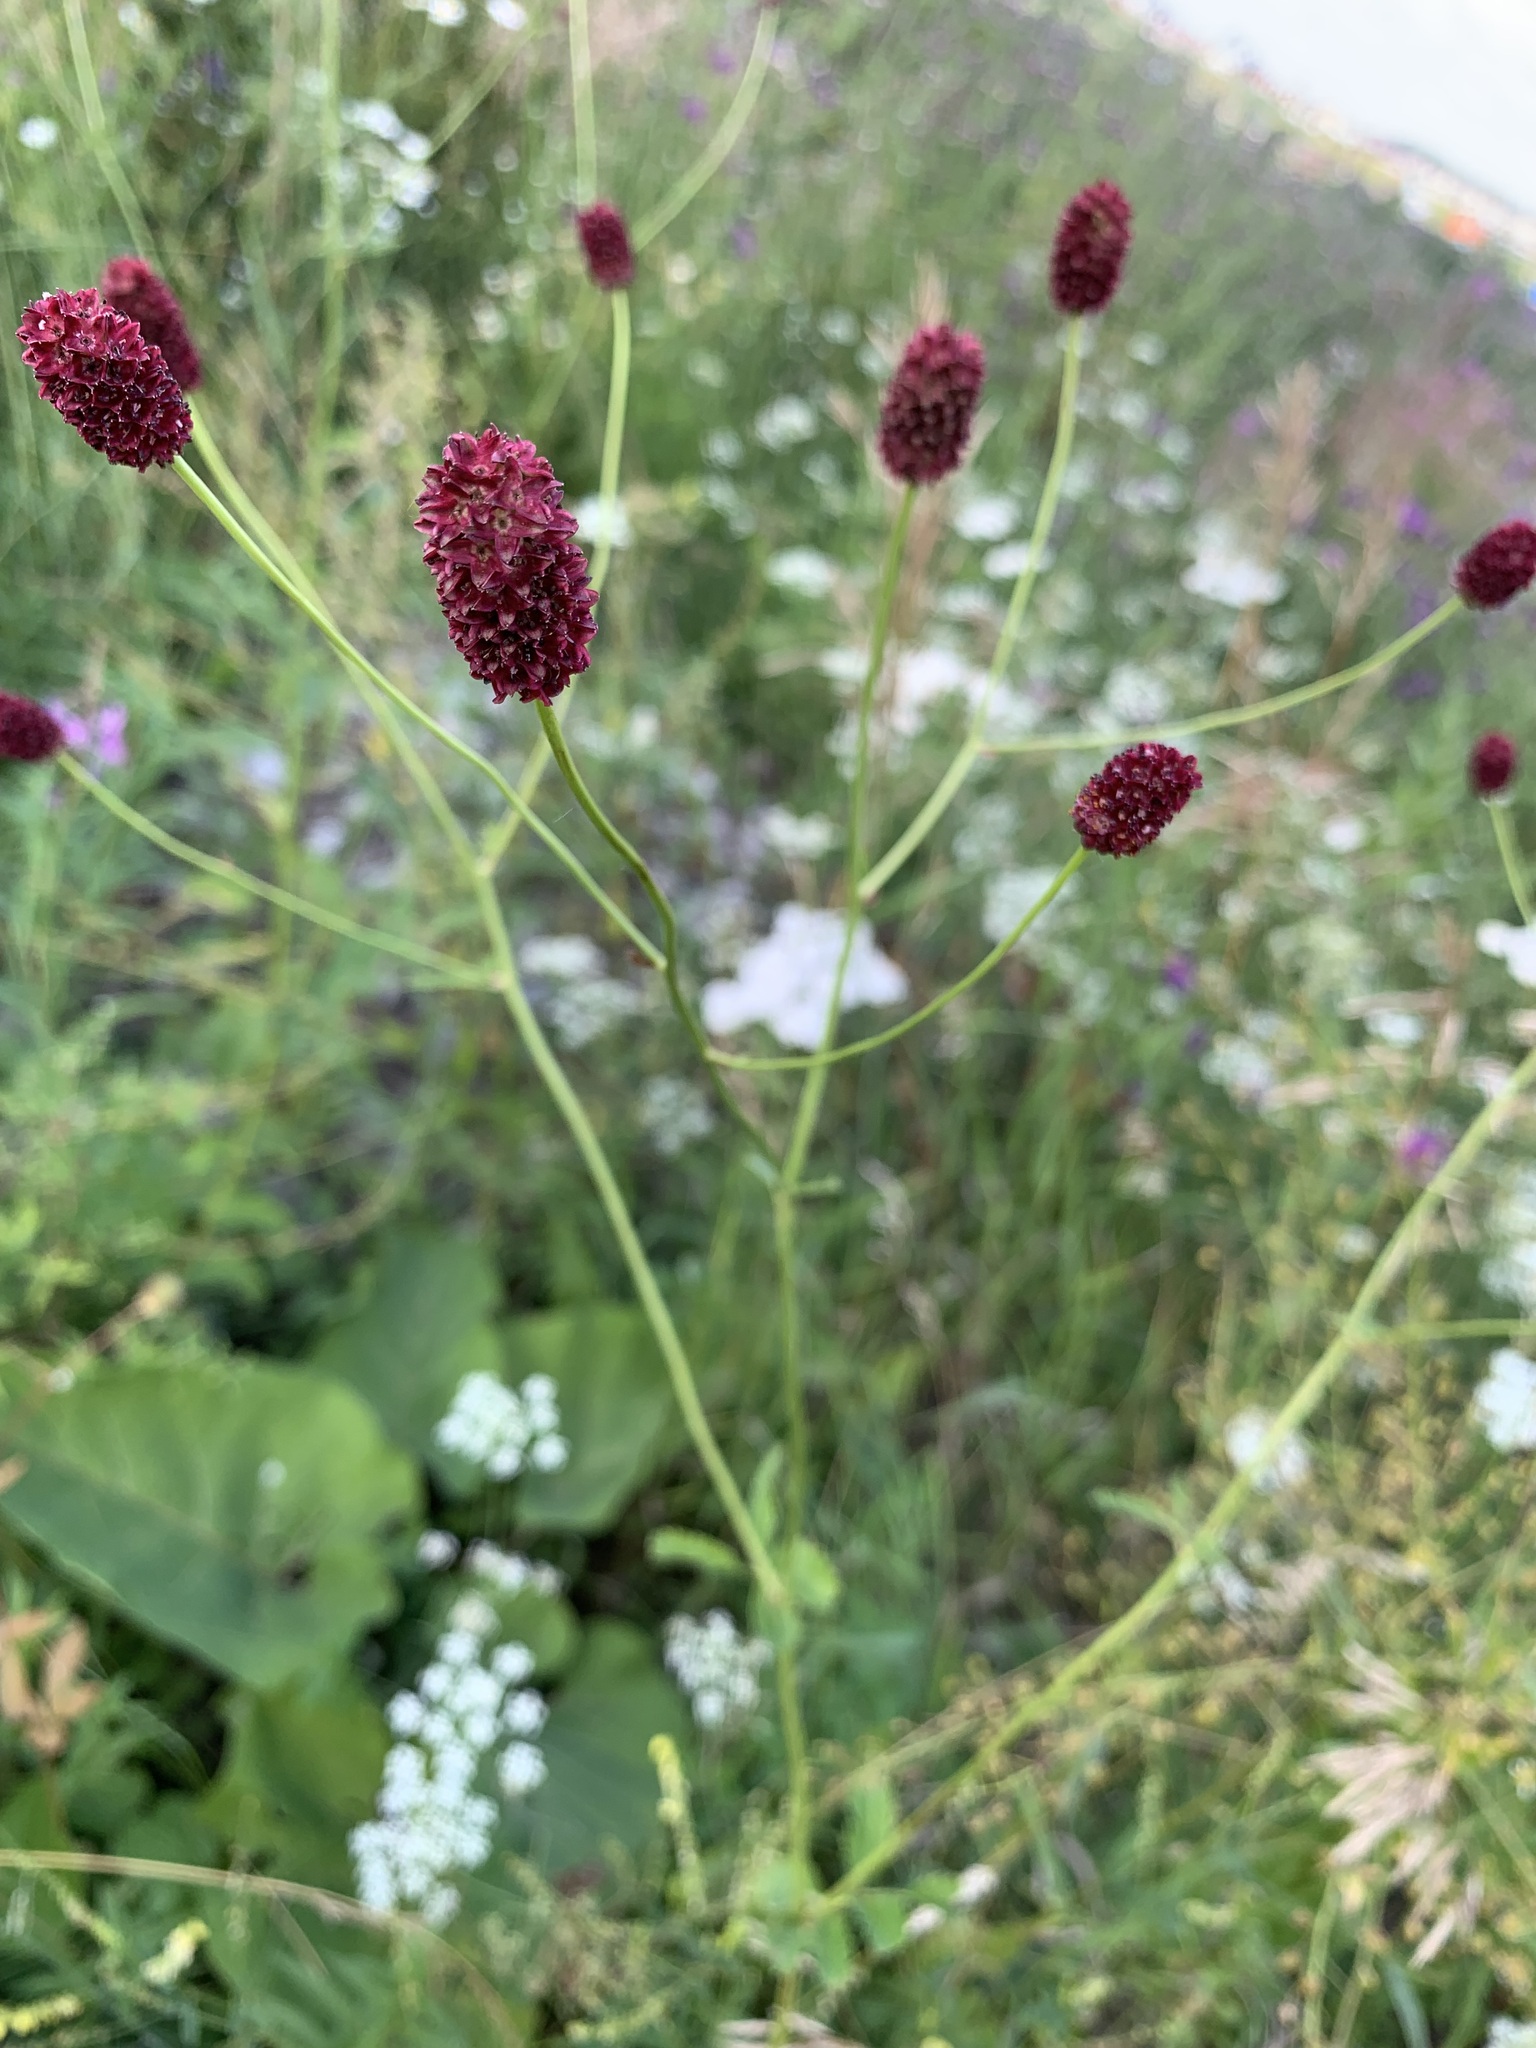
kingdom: Plantae
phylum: Tracheophyta
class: Magnoliopsida
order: Rosales
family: Rosaceae
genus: Sanguisorba
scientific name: Sanguisorba officinalis
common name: Great burnet
